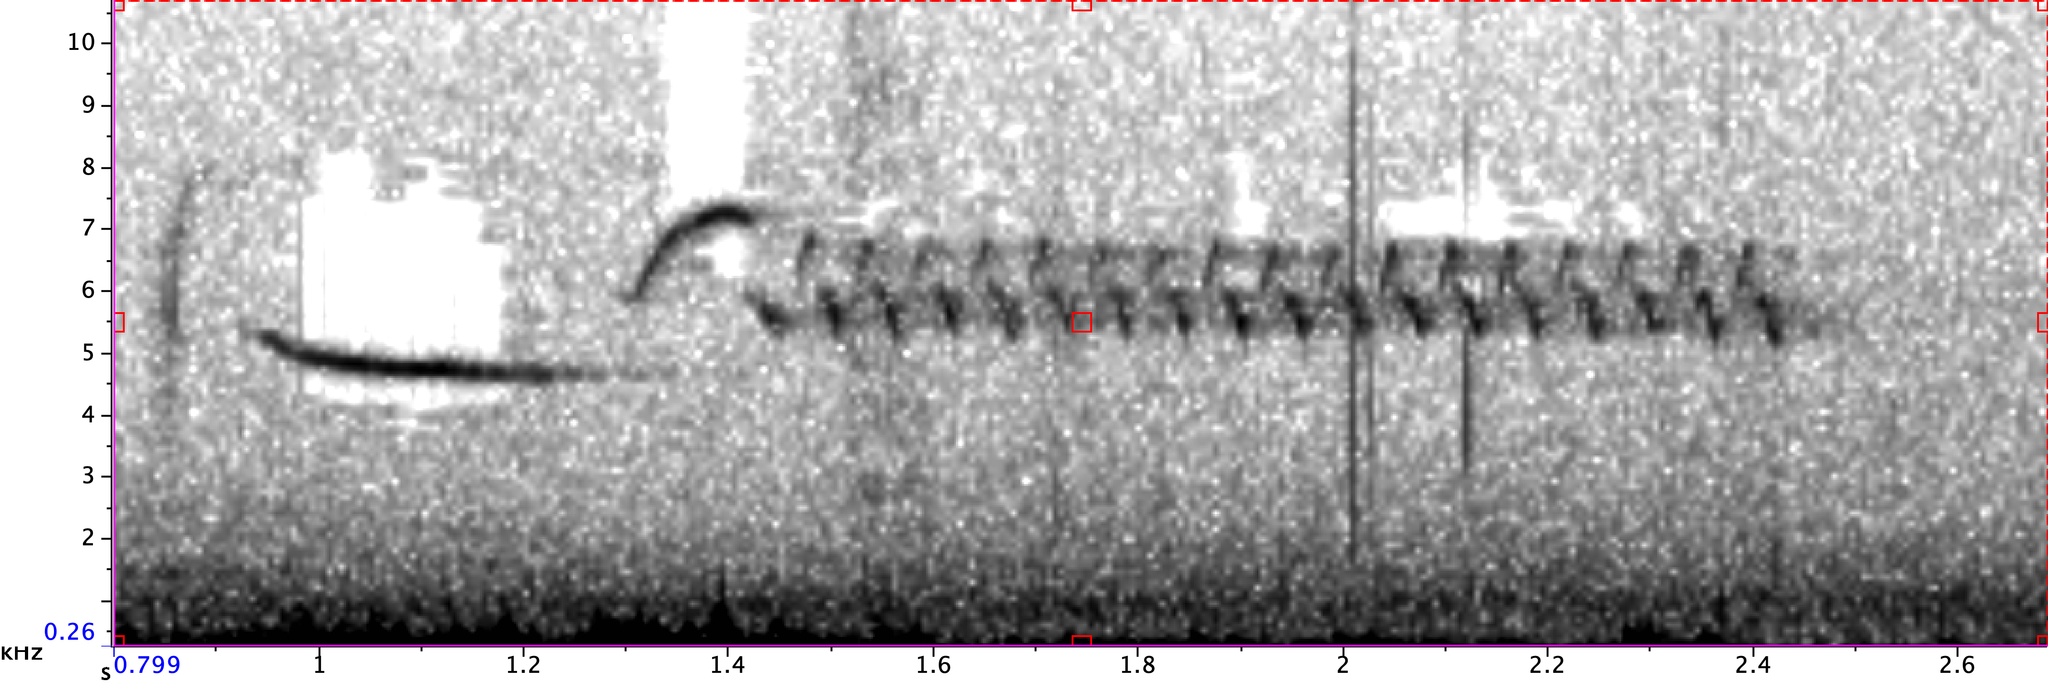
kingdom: Animalia
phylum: Chordata
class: Aves
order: Passeriformes
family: Troglodytidae
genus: Thryomanes
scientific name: Thryomanes bewickii
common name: Bewick's wren
